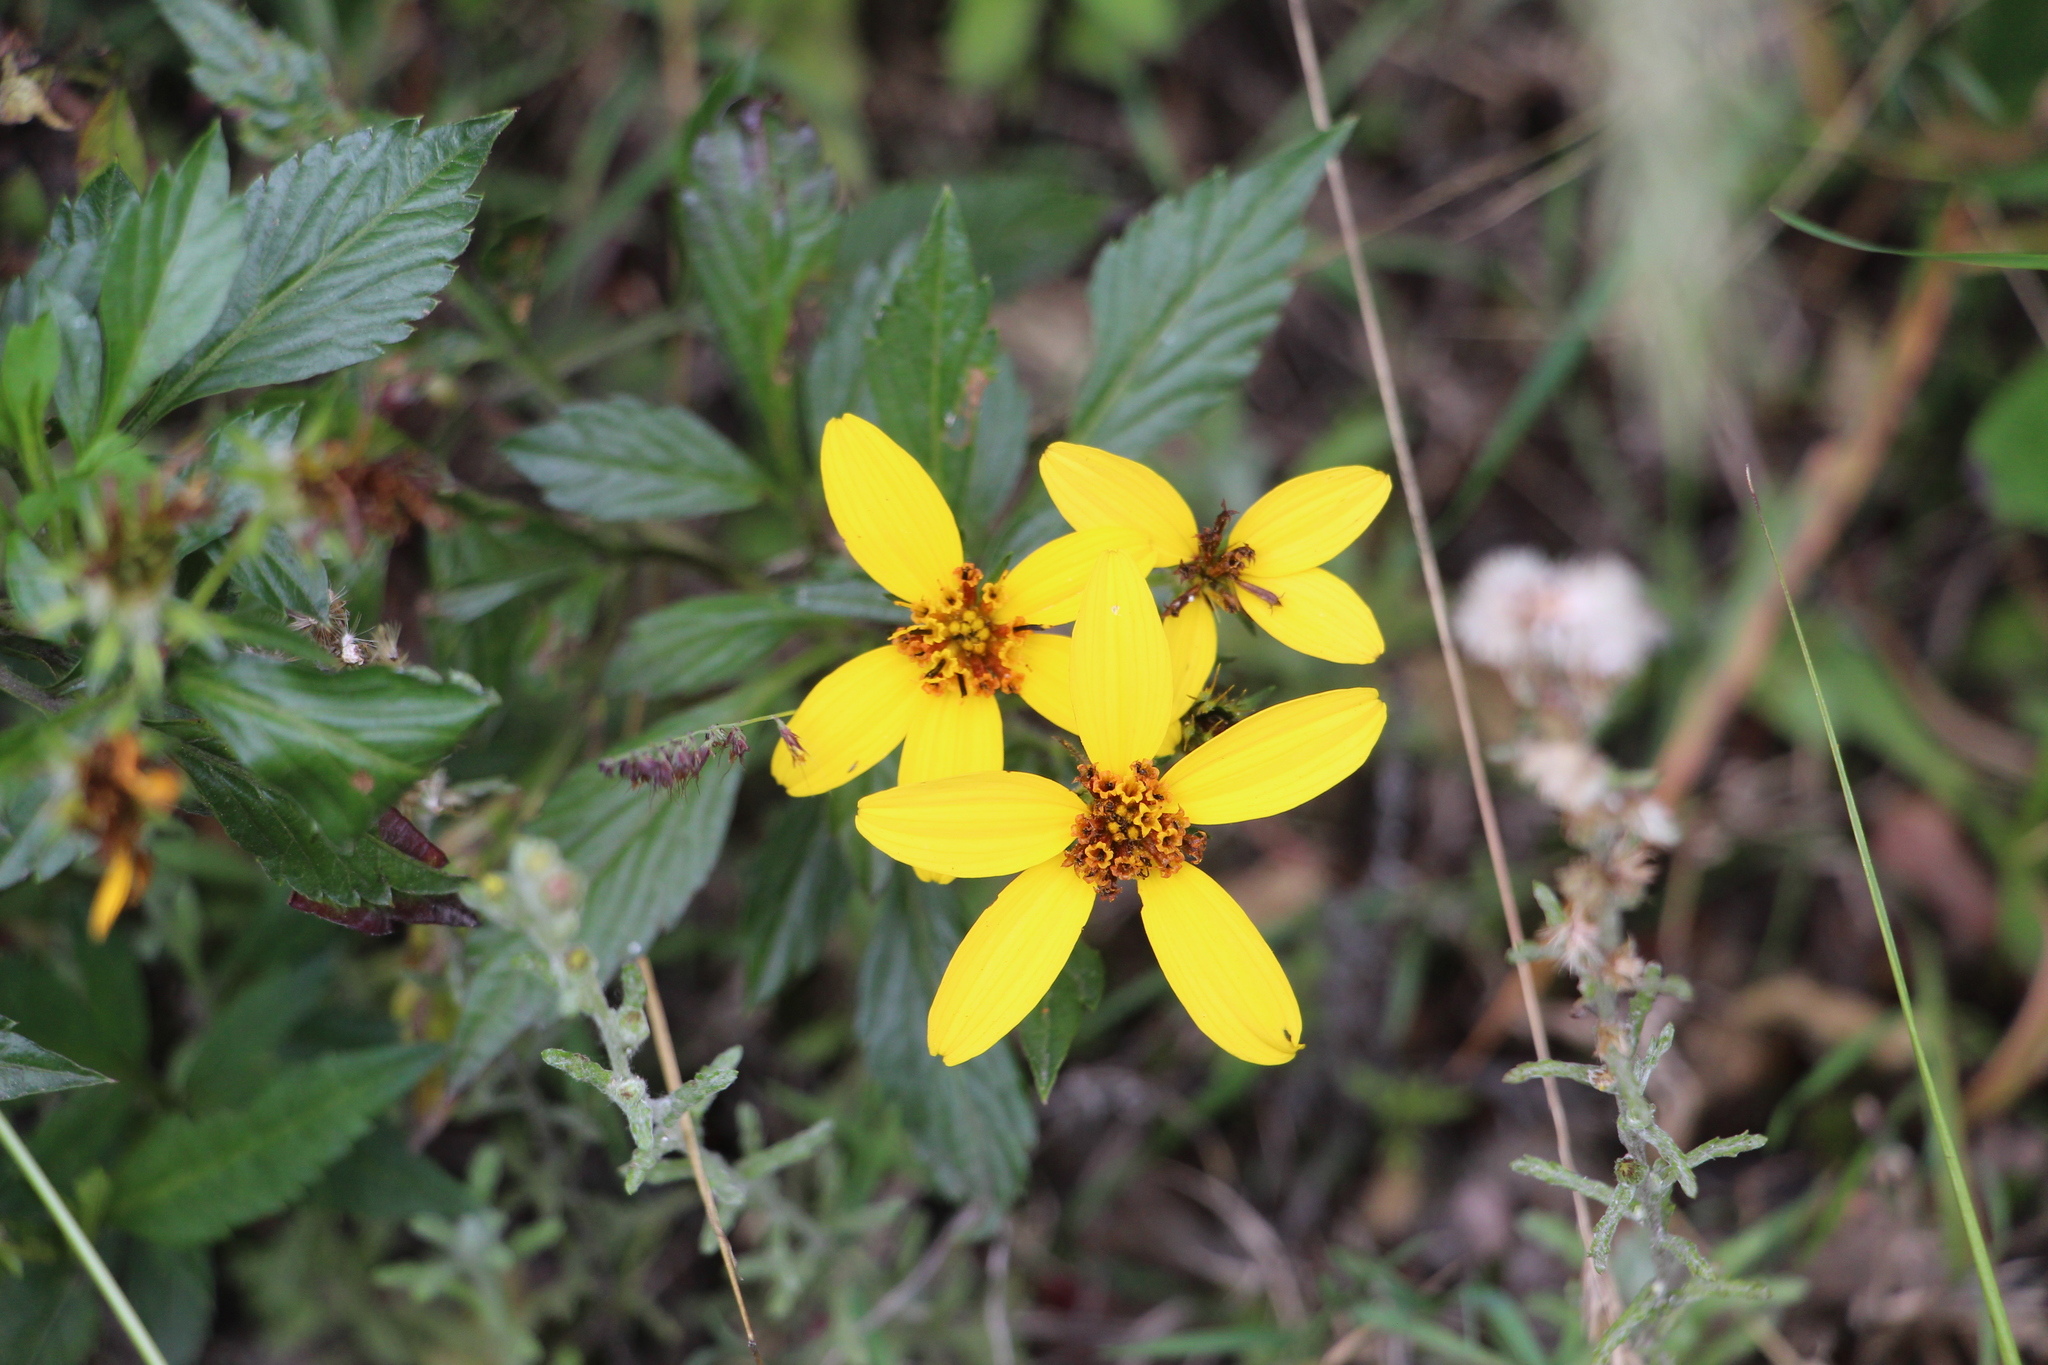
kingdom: Plantae
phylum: Tracheophyta
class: Magnoliopsida
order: Asterales
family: Asteraceae
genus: Bidens
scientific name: Bidens rubifolia
